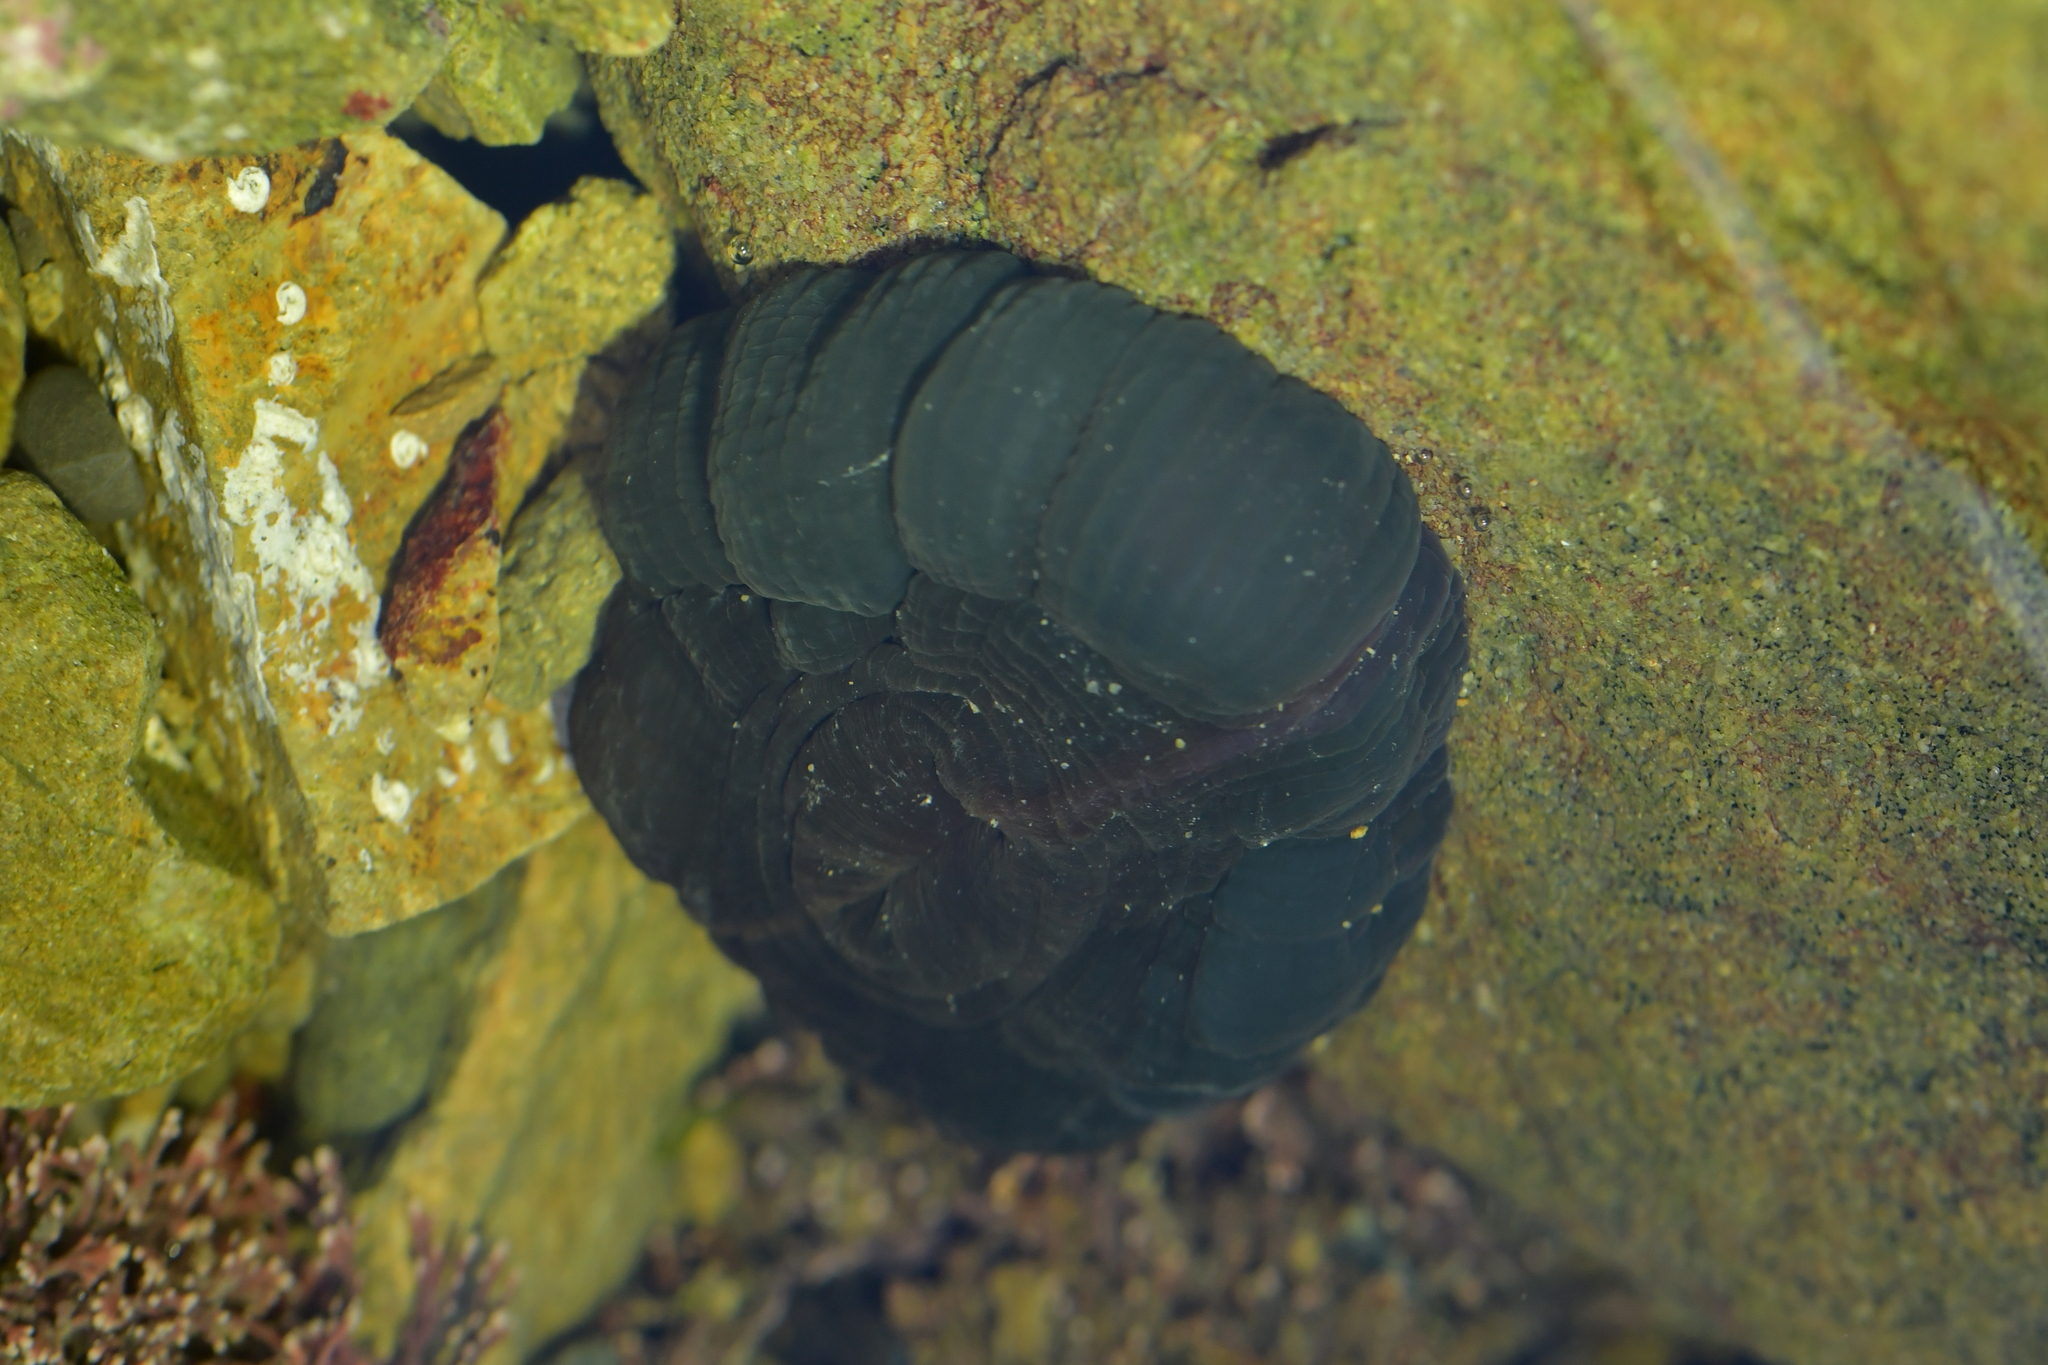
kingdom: Animalia
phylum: Cnidaria
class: Anthozoa
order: Actiniaria
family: Actiniidae
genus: Actinia
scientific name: Actinia tenebrosa
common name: Waratah anemone
